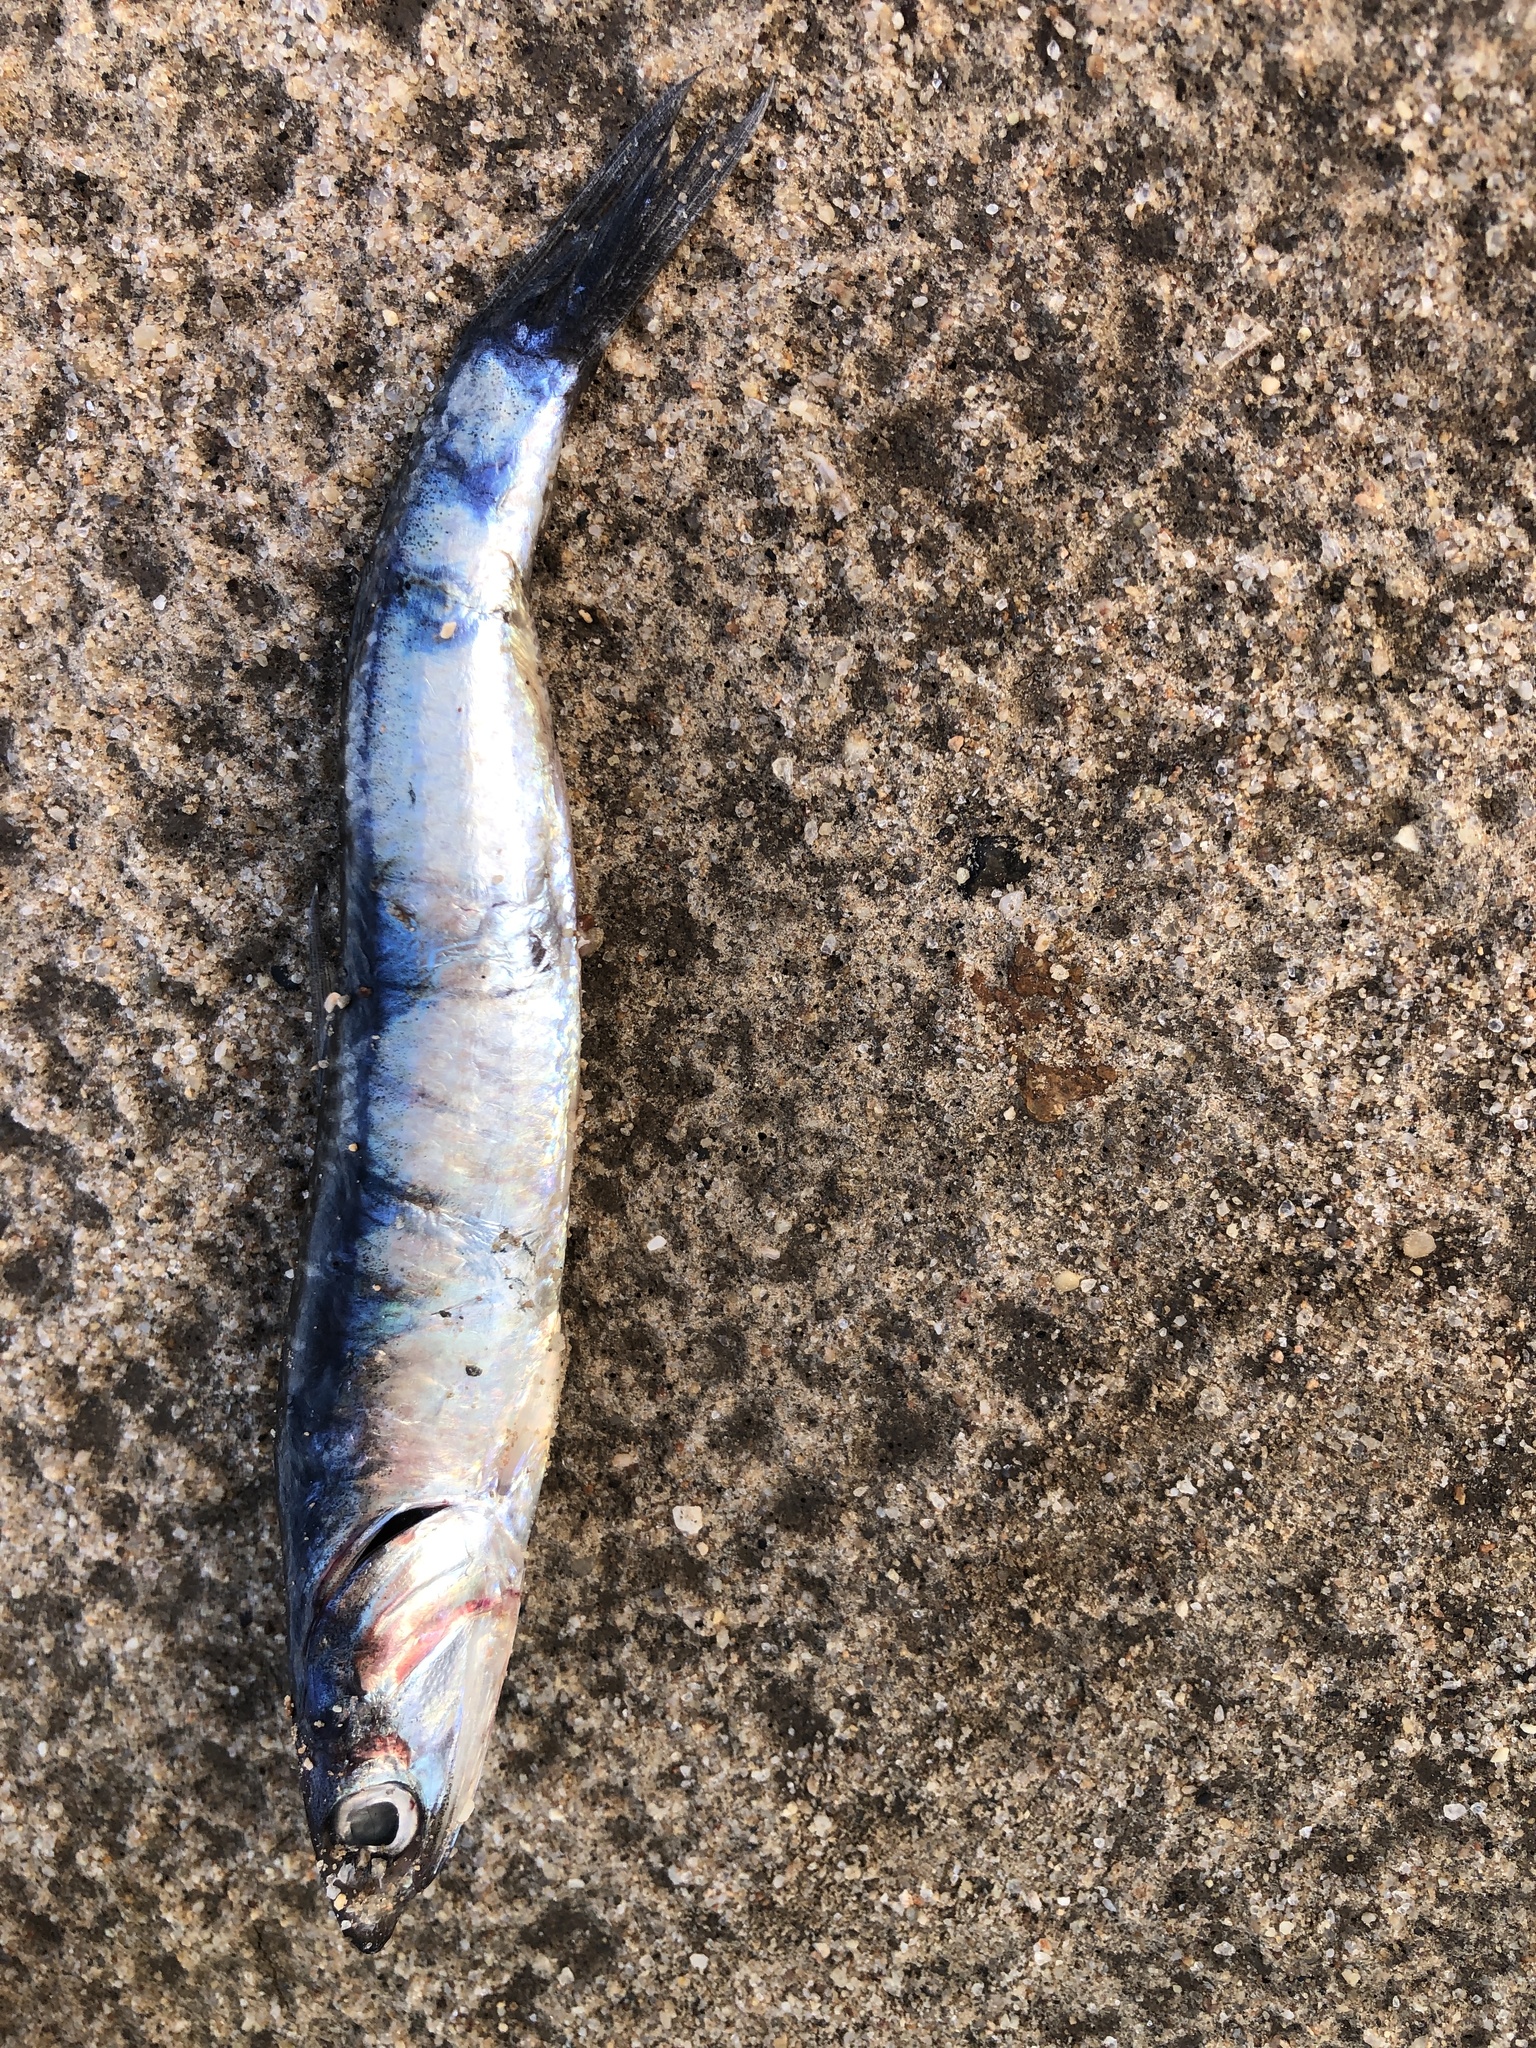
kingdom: Animalia
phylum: Chordata
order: Clupeiformes
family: Engraulidae
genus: Engraulis
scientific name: Engraulis mordax
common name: Northern anchovy
